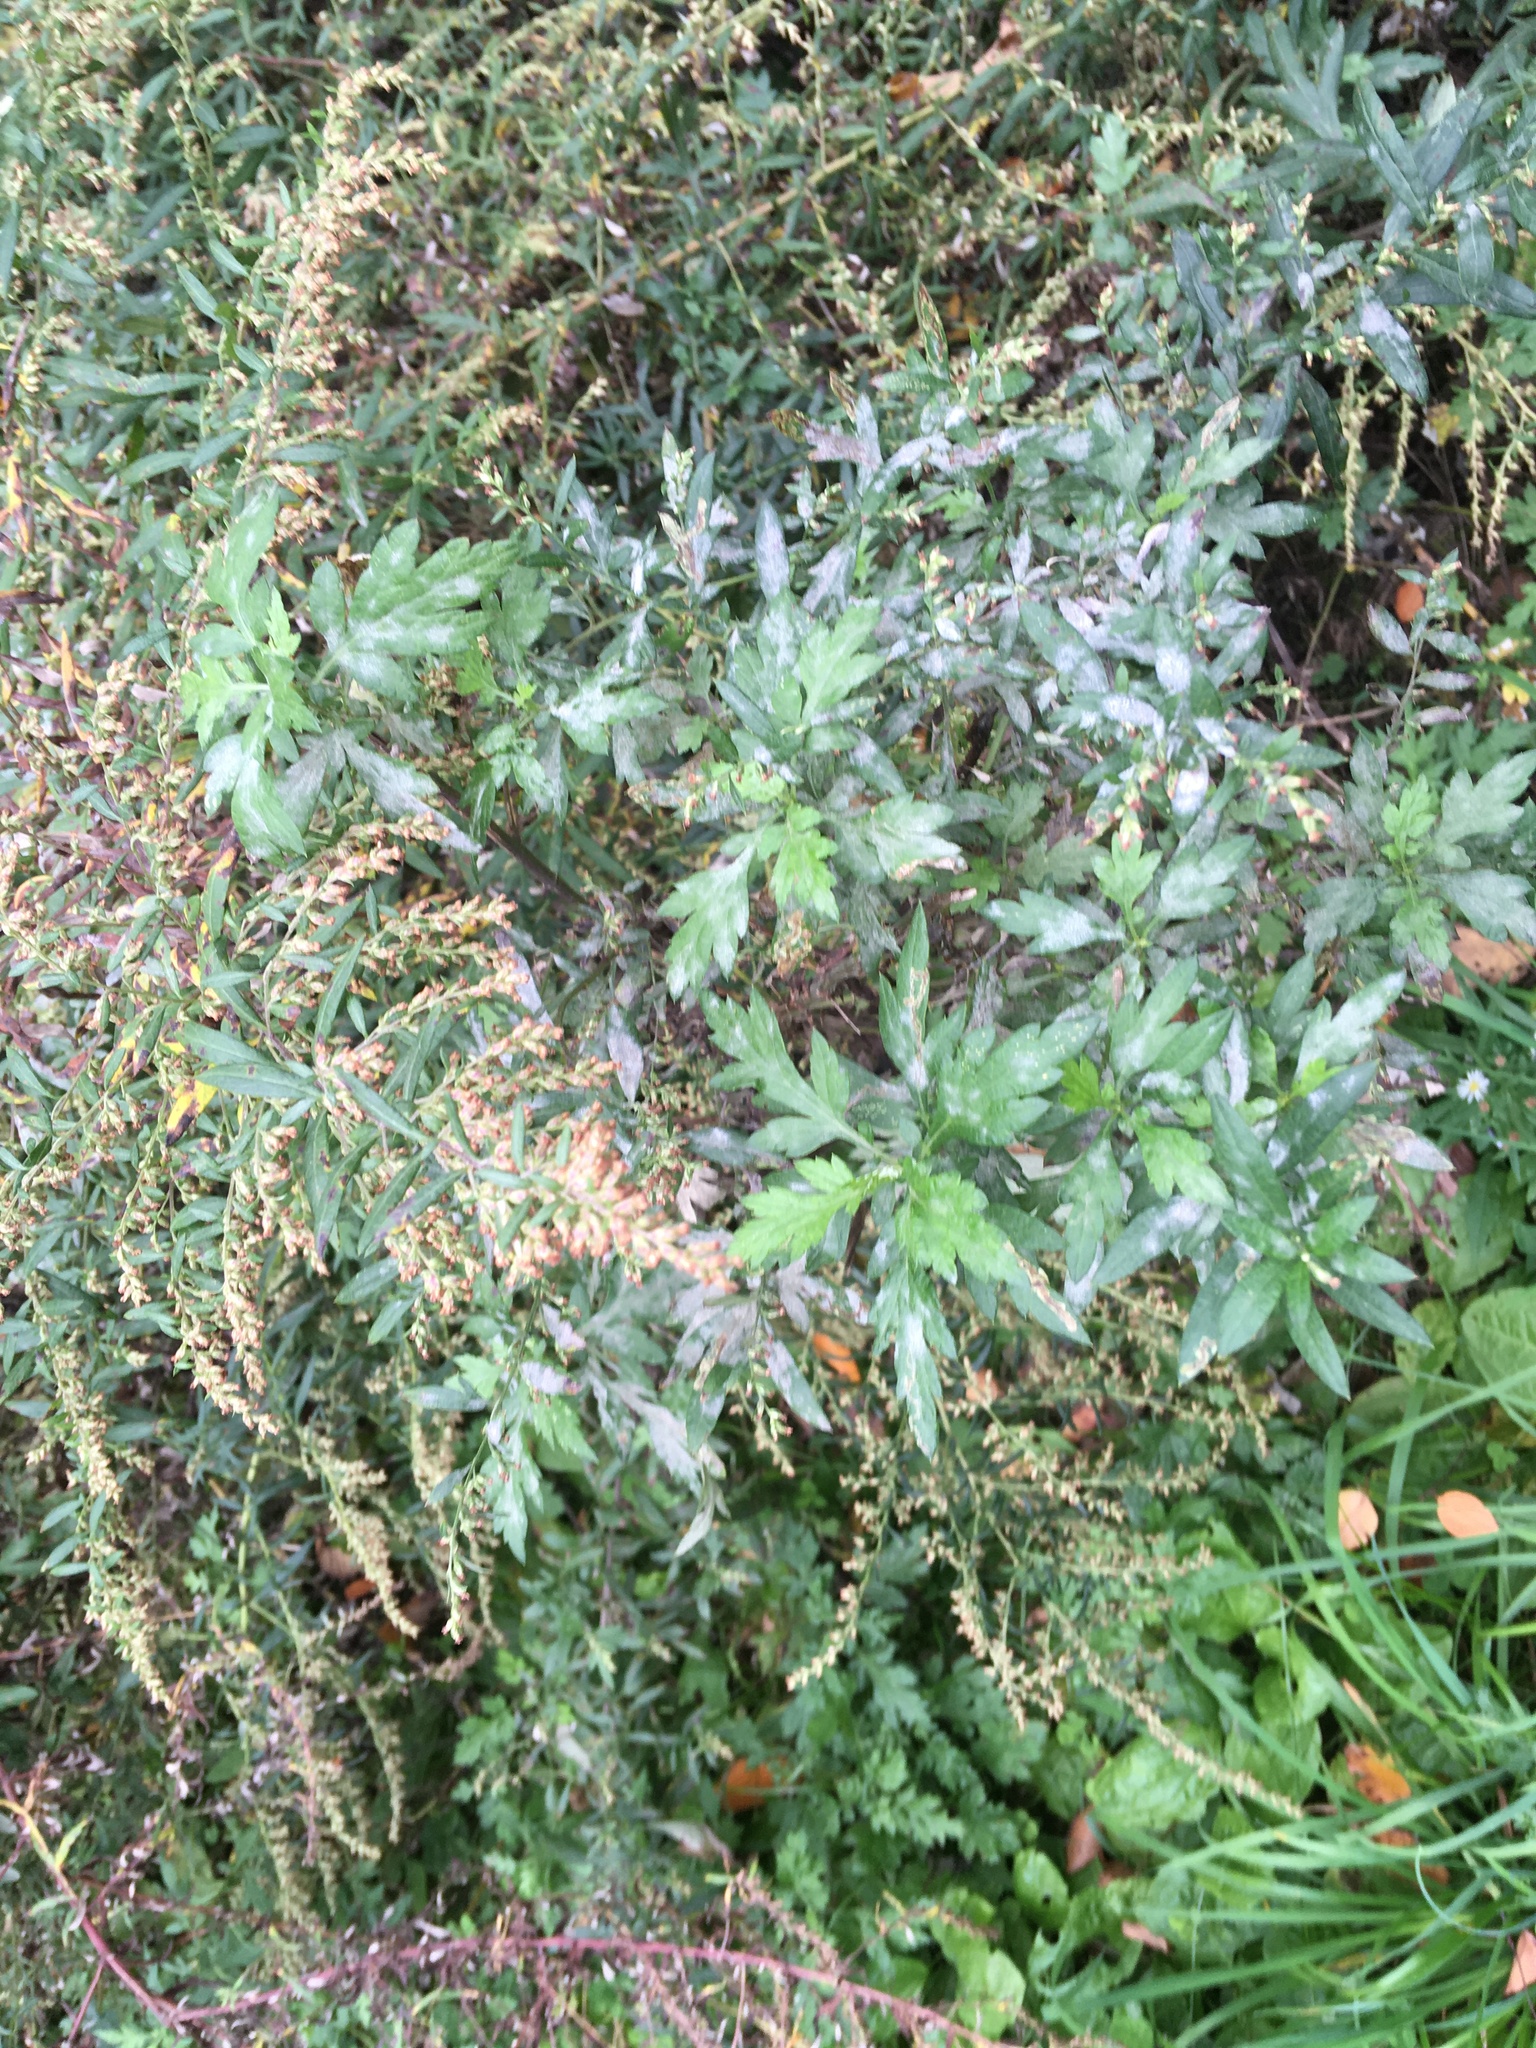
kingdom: Plantae
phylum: Tracheophyta
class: Magnoliopsida
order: Asterales
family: Asteraceae
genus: Artemisia
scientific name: Artemisia vulgaris
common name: Mugwort
